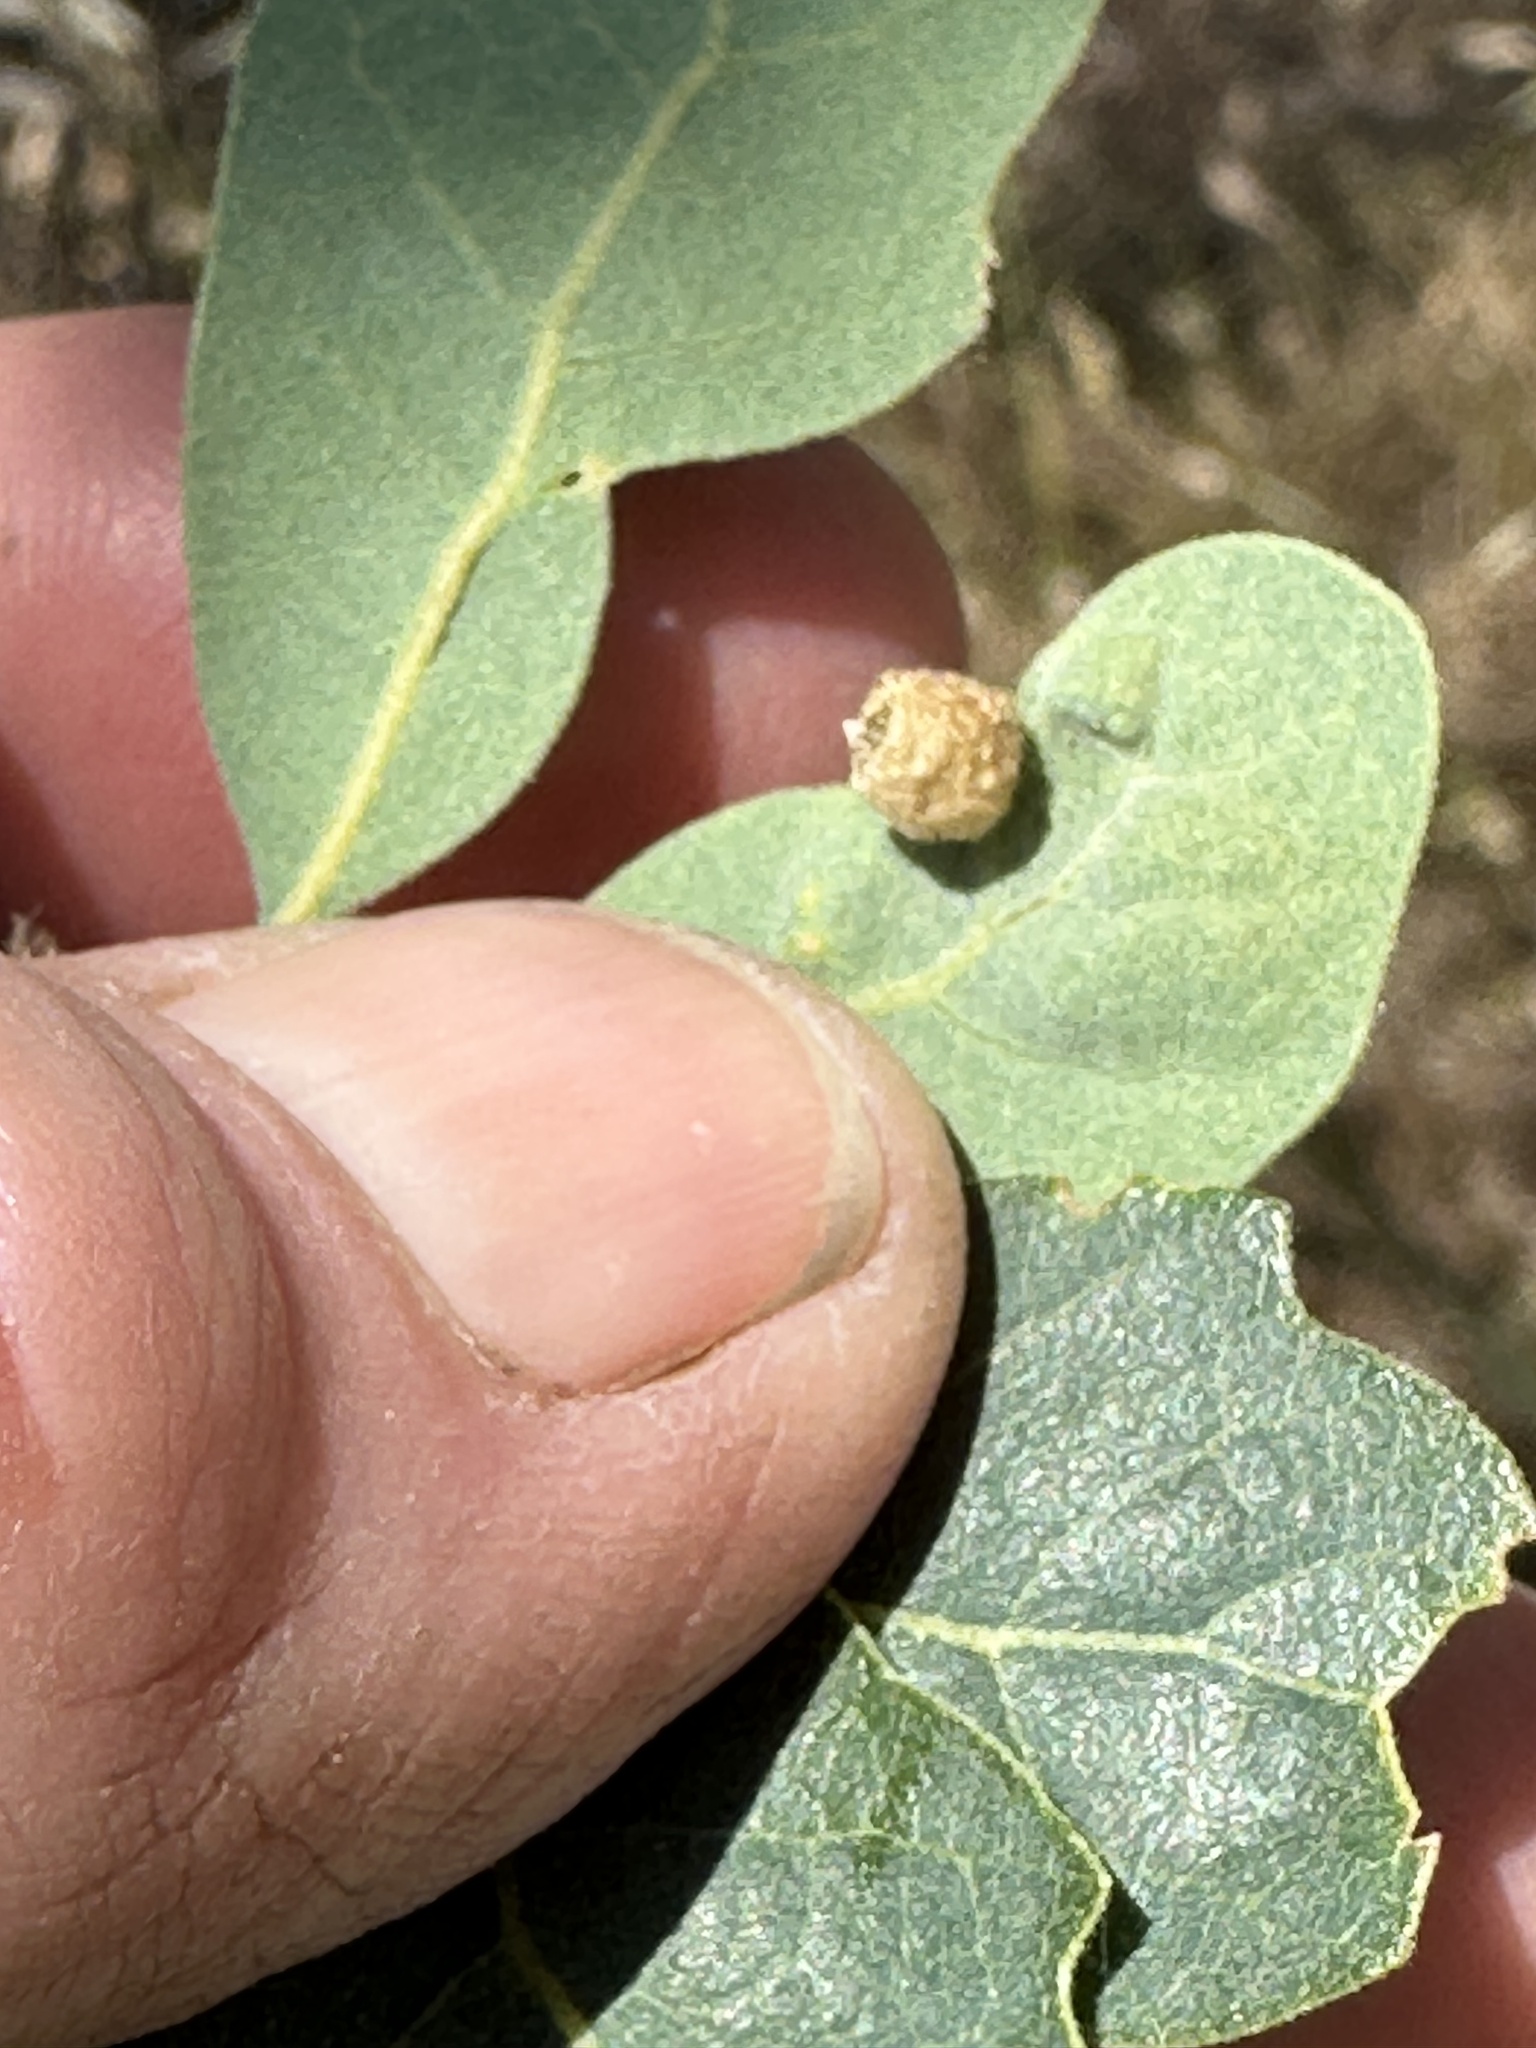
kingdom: Animalia
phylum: Arthropoda
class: Insecta
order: Hymenoptera
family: Cynipidae
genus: Andricus
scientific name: Andricus
